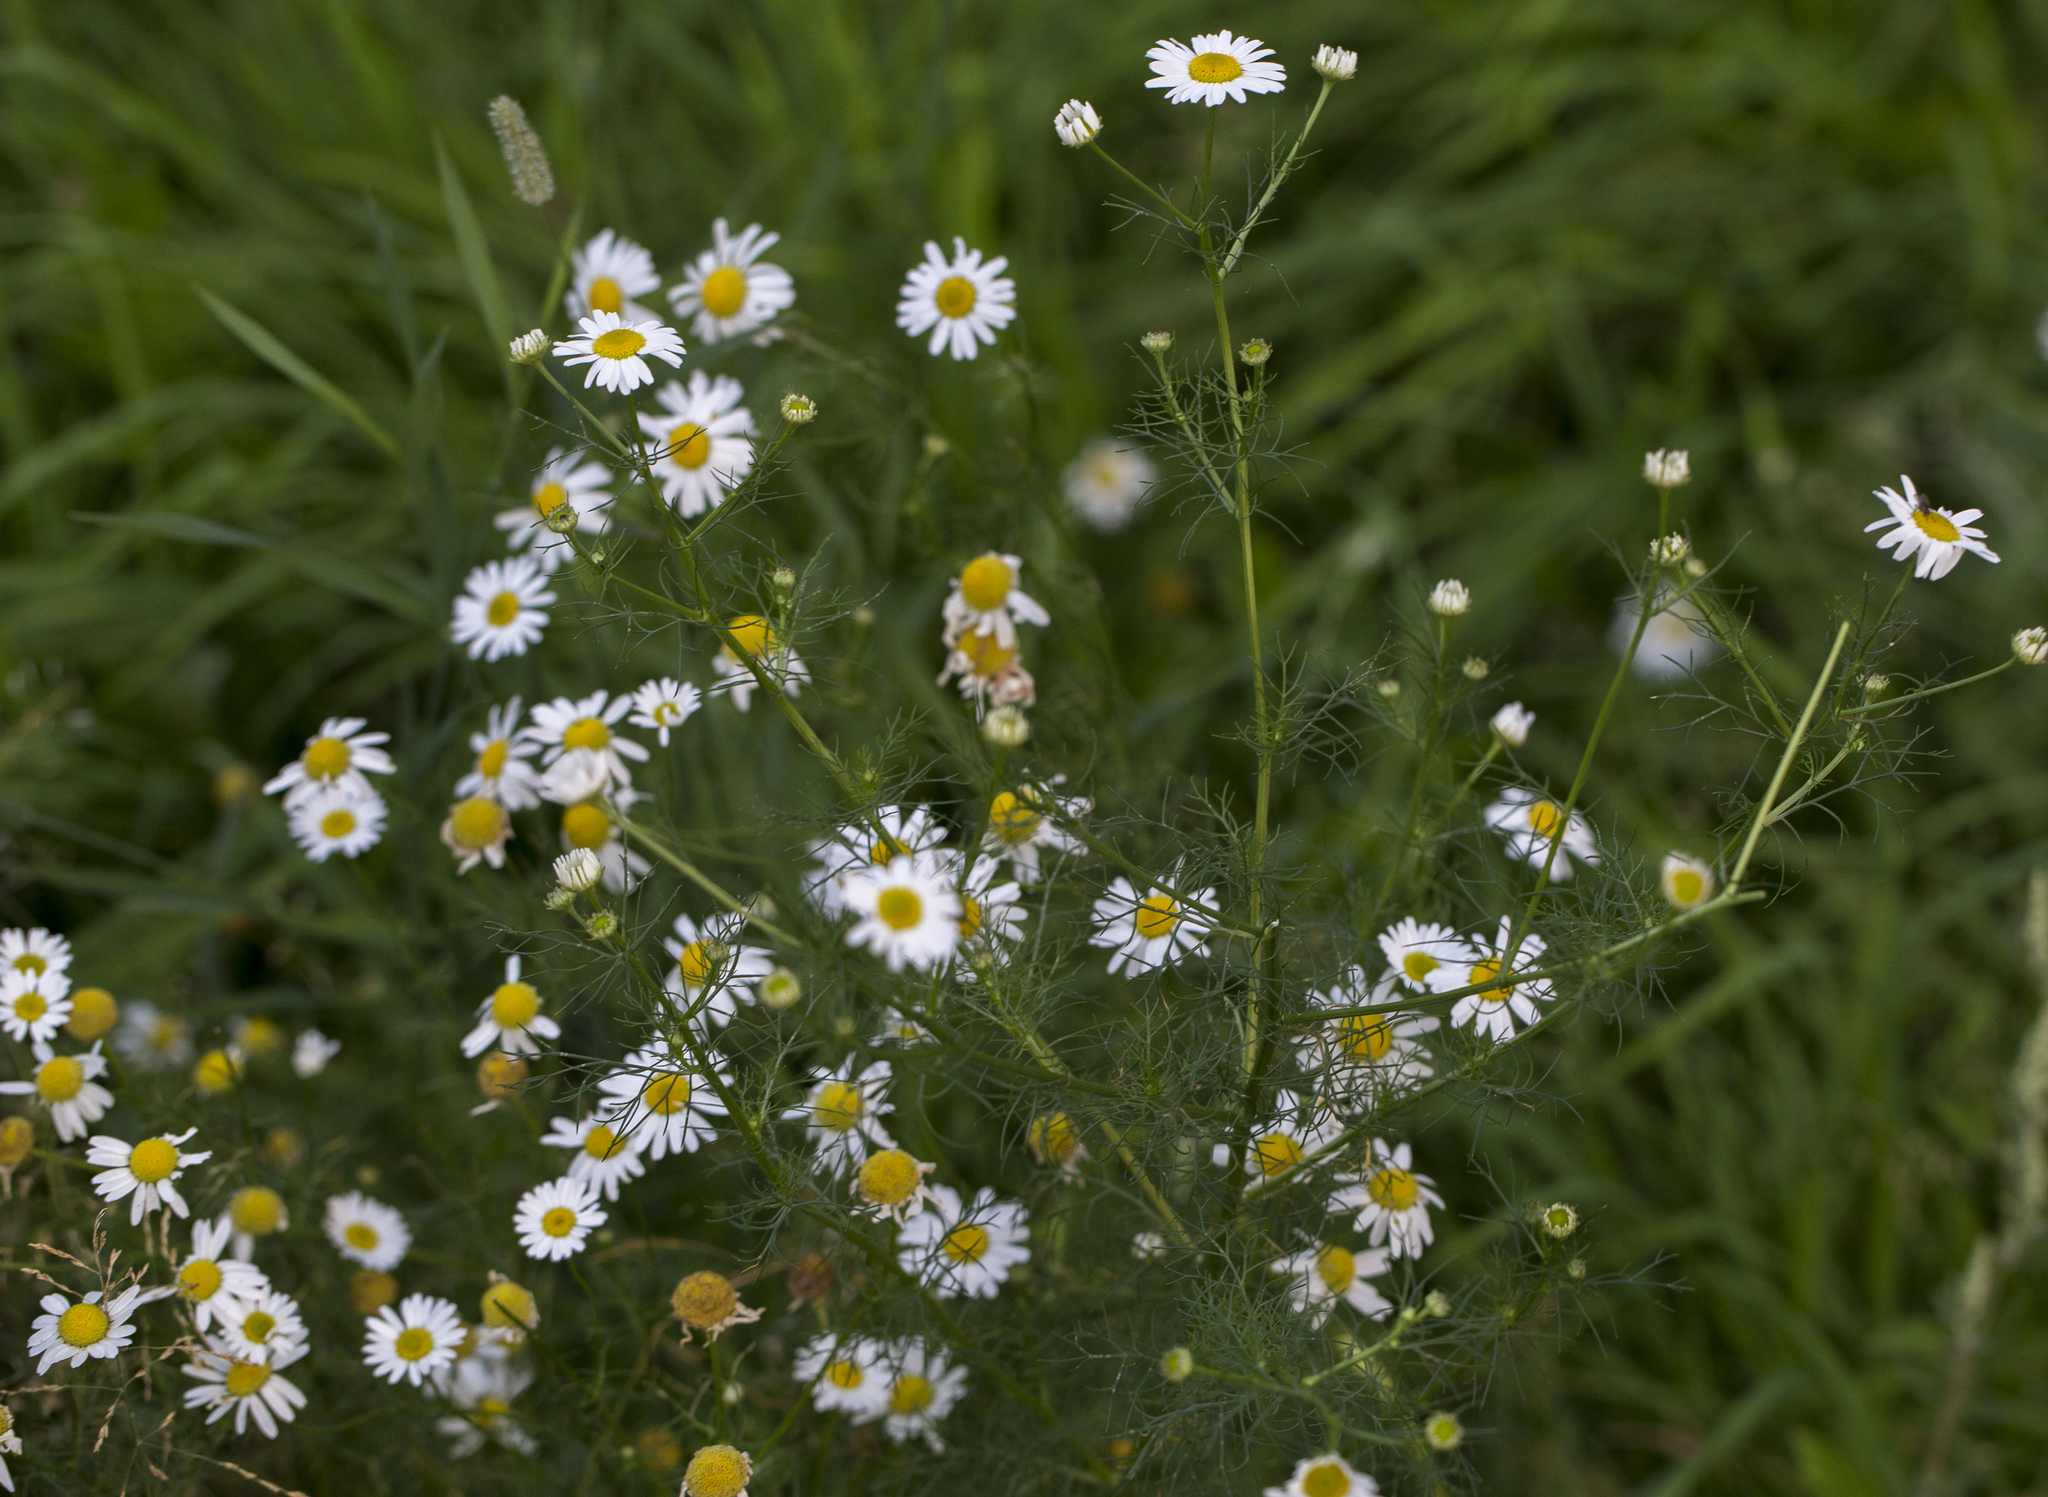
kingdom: Plantae
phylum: Tracheophyta
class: Magnoliopsida
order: Asterales
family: Asteraceae
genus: Tripleurospermum
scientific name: Tripleurospermum inodorum
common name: Scentless mayweed
